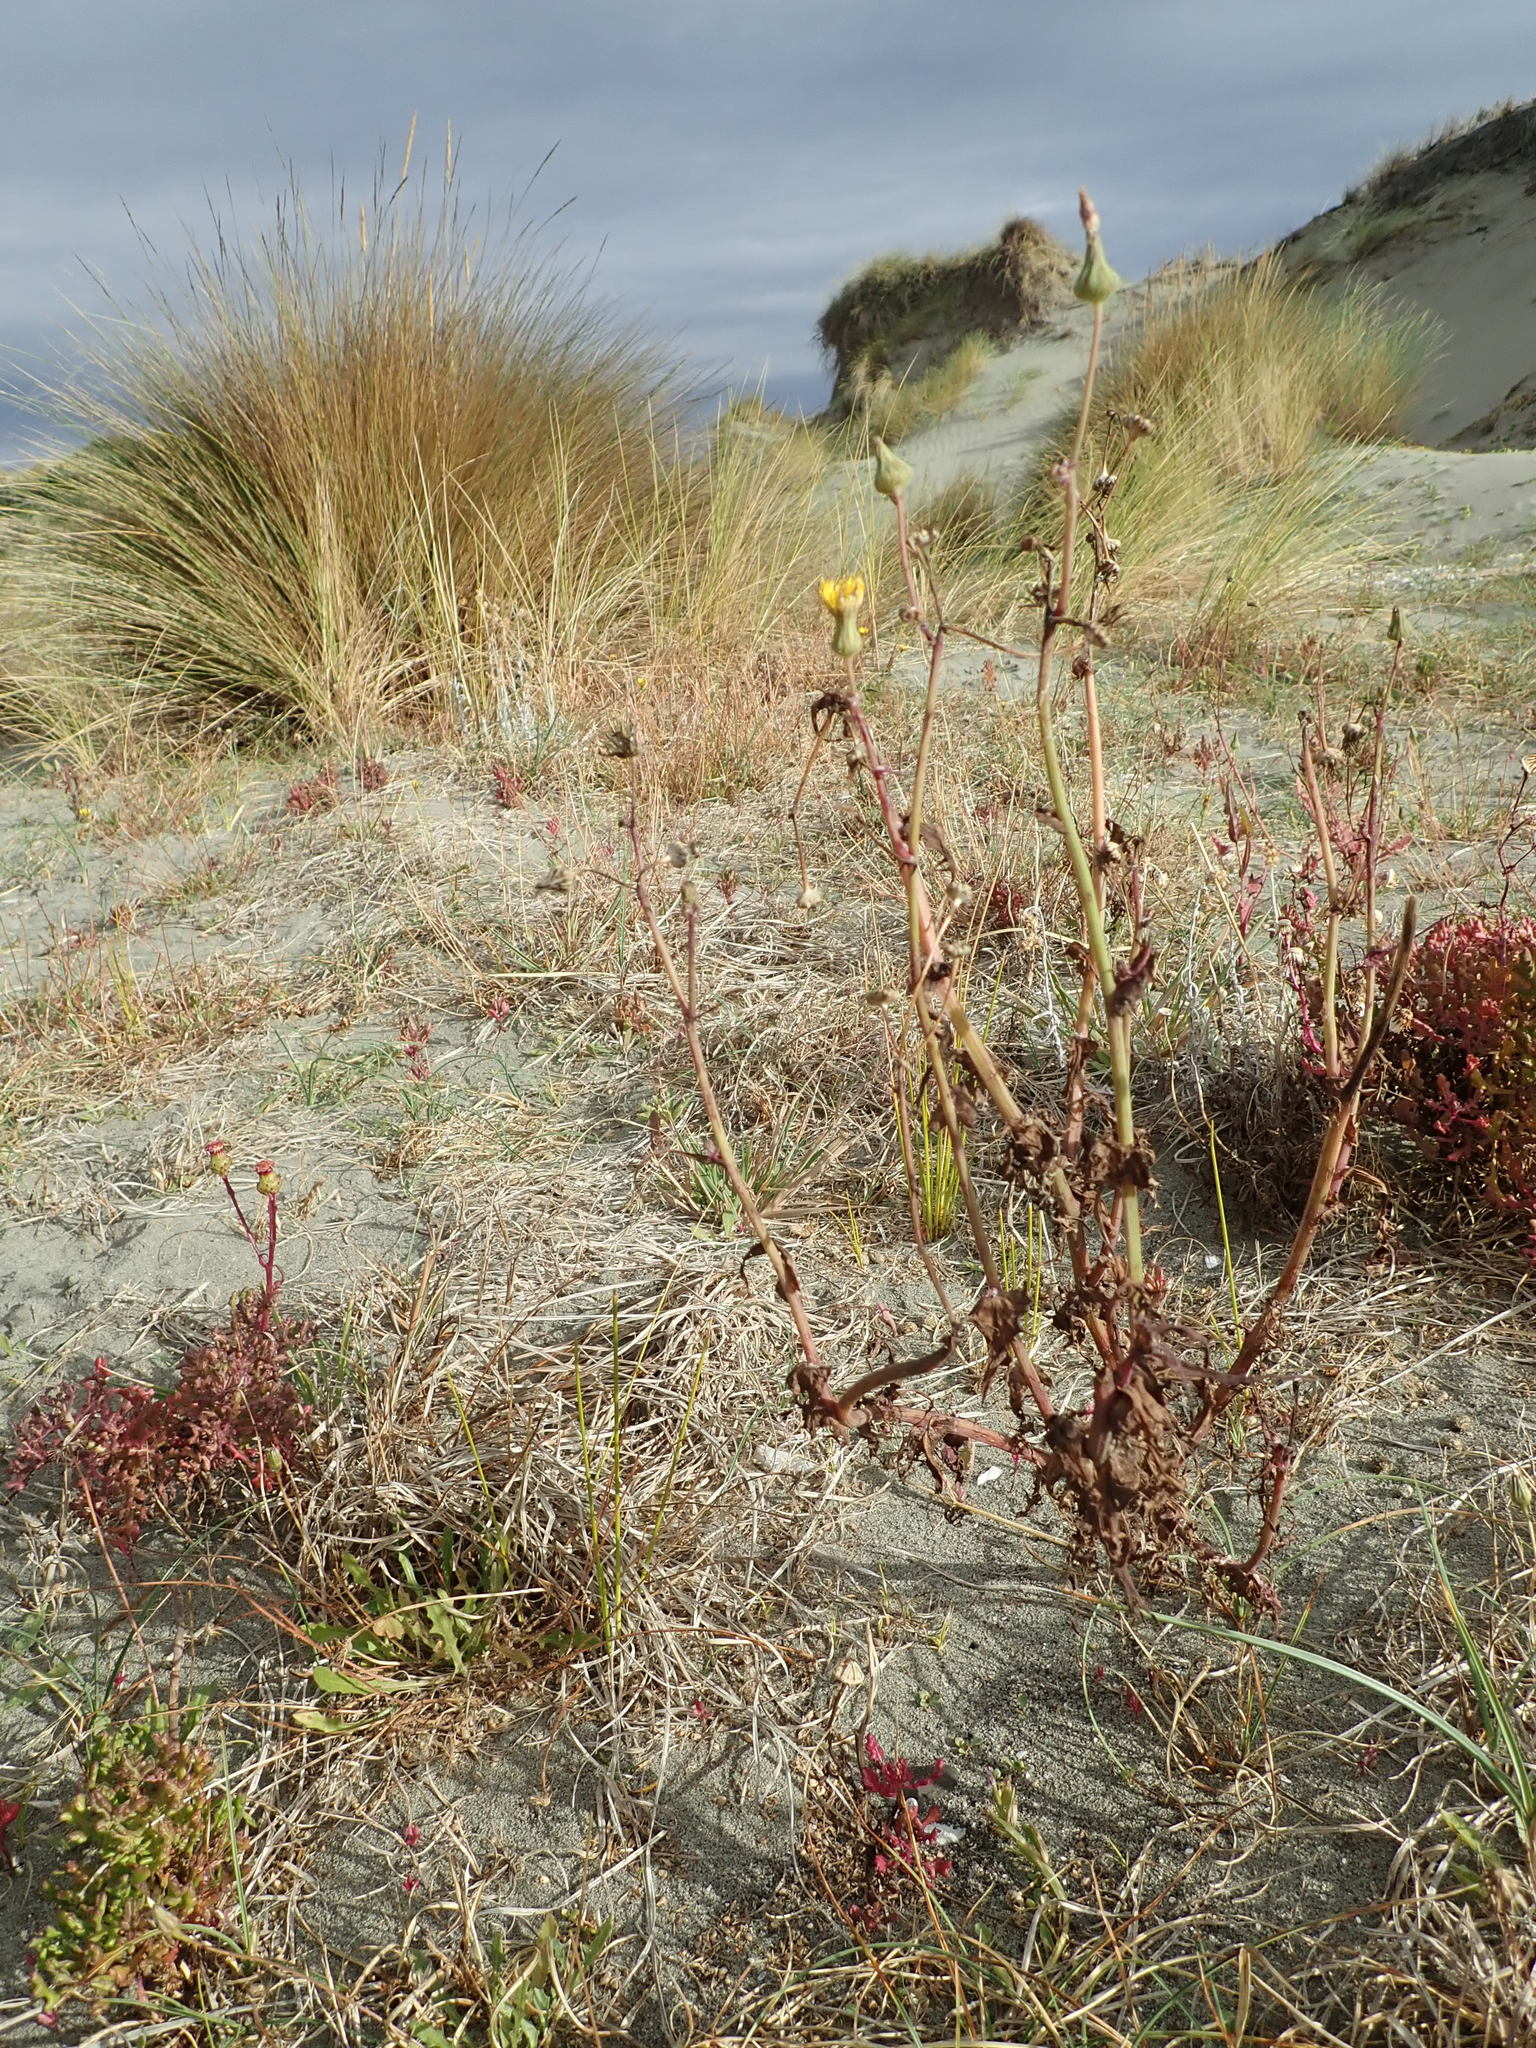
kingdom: Plantae
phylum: Tracheophyta
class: Magnoliopsida
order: Asterales
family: Asteraceae
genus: Sonchus
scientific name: Sonchus oleraceus
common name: Common sowthistle
